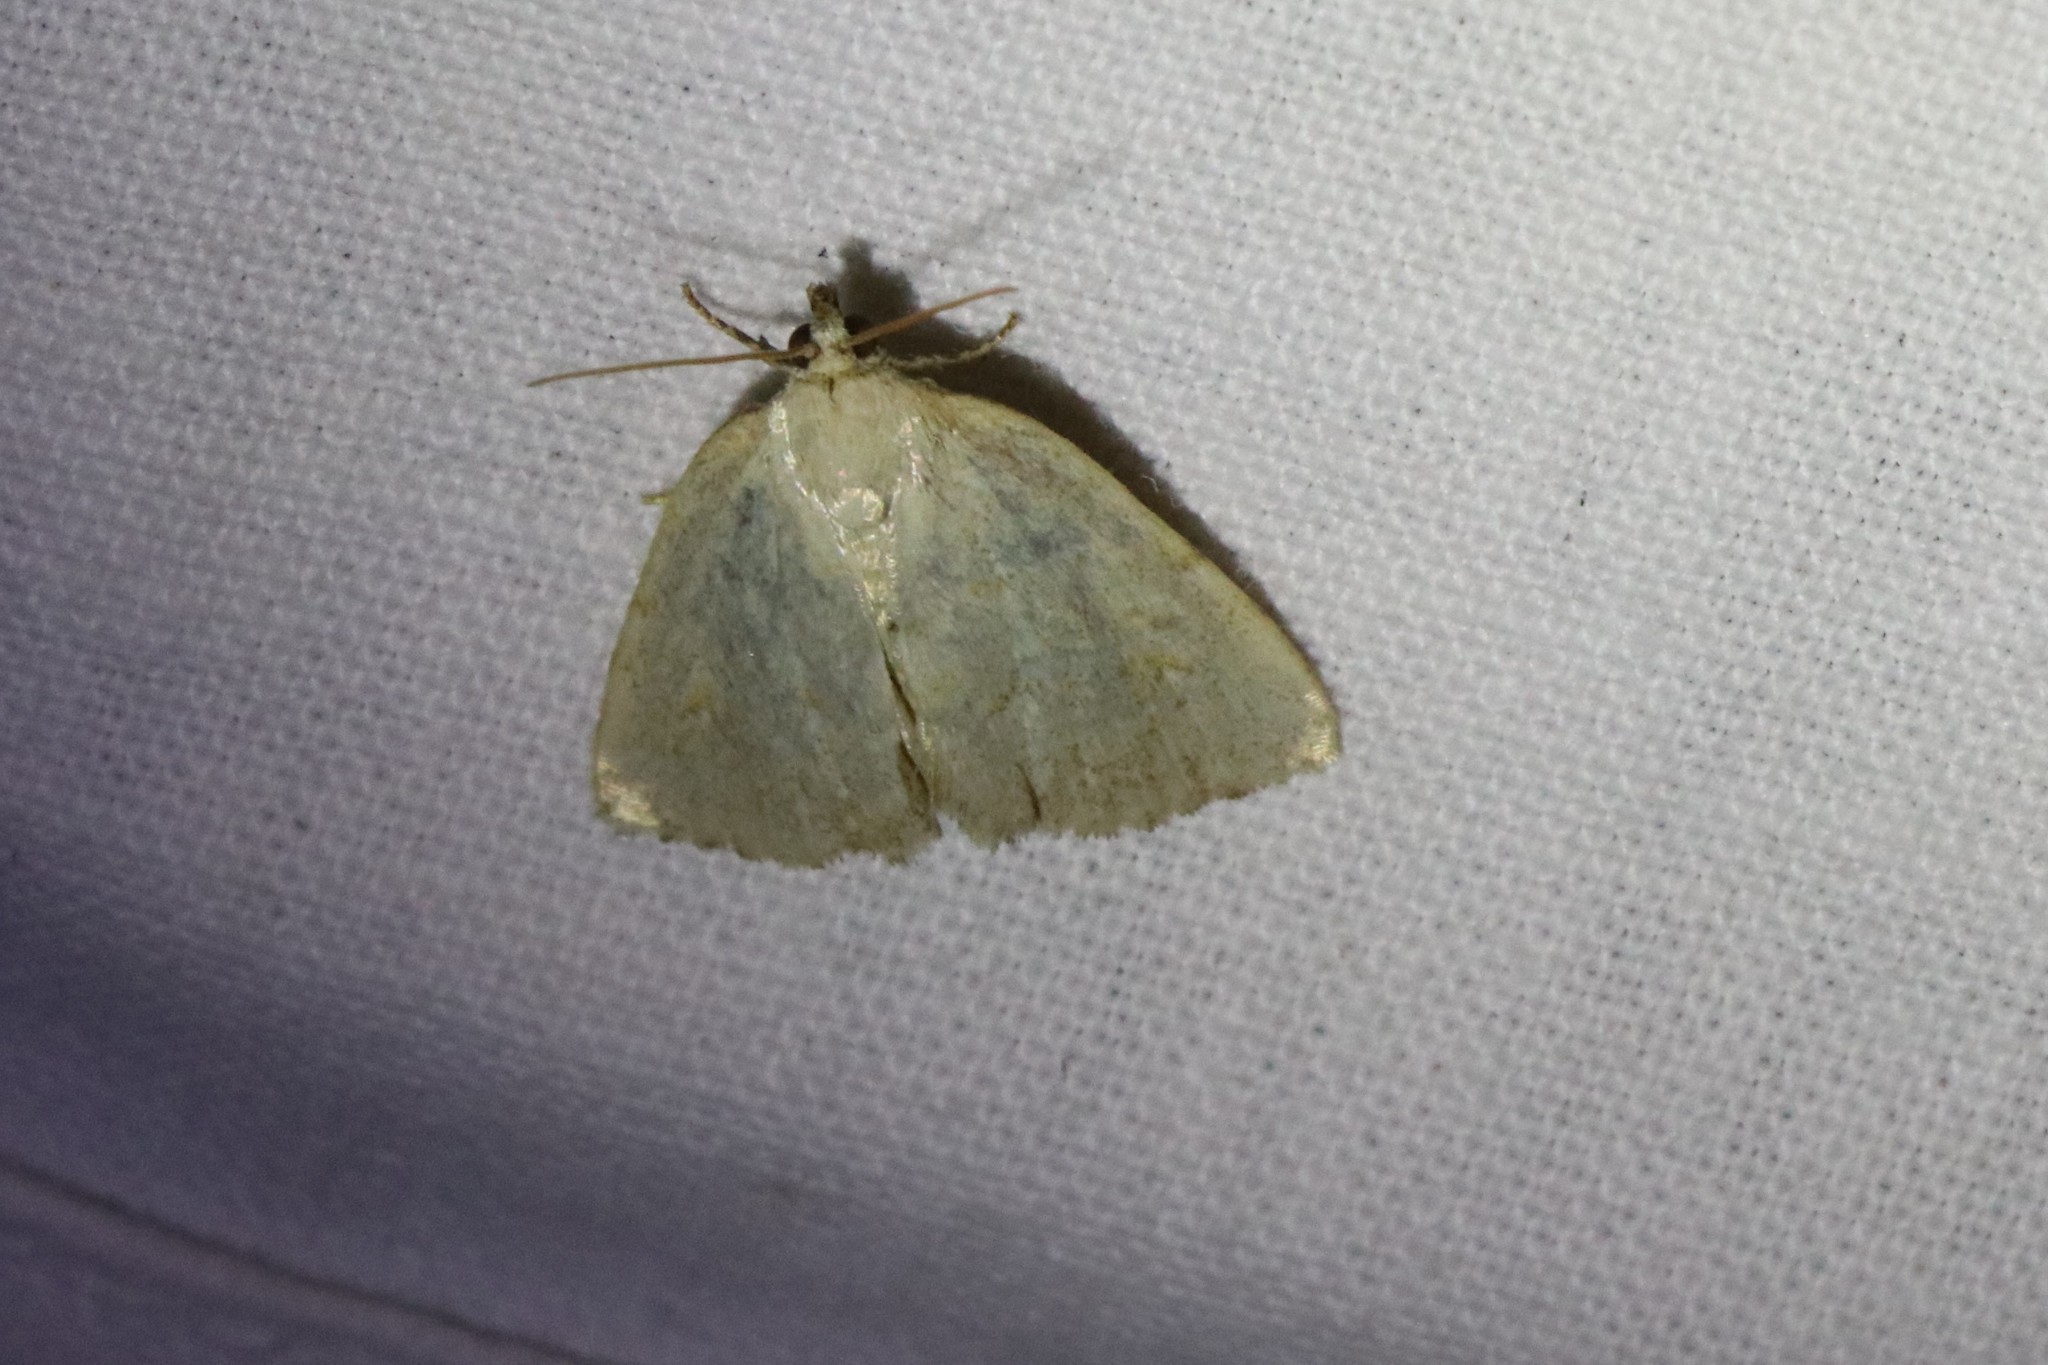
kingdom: Animalia
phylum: Arthropoda
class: Insecta
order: Lepidoptera
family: Noctuidae
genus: Protodeltote
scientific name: Protodeltote albidula
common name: Pale glyph
